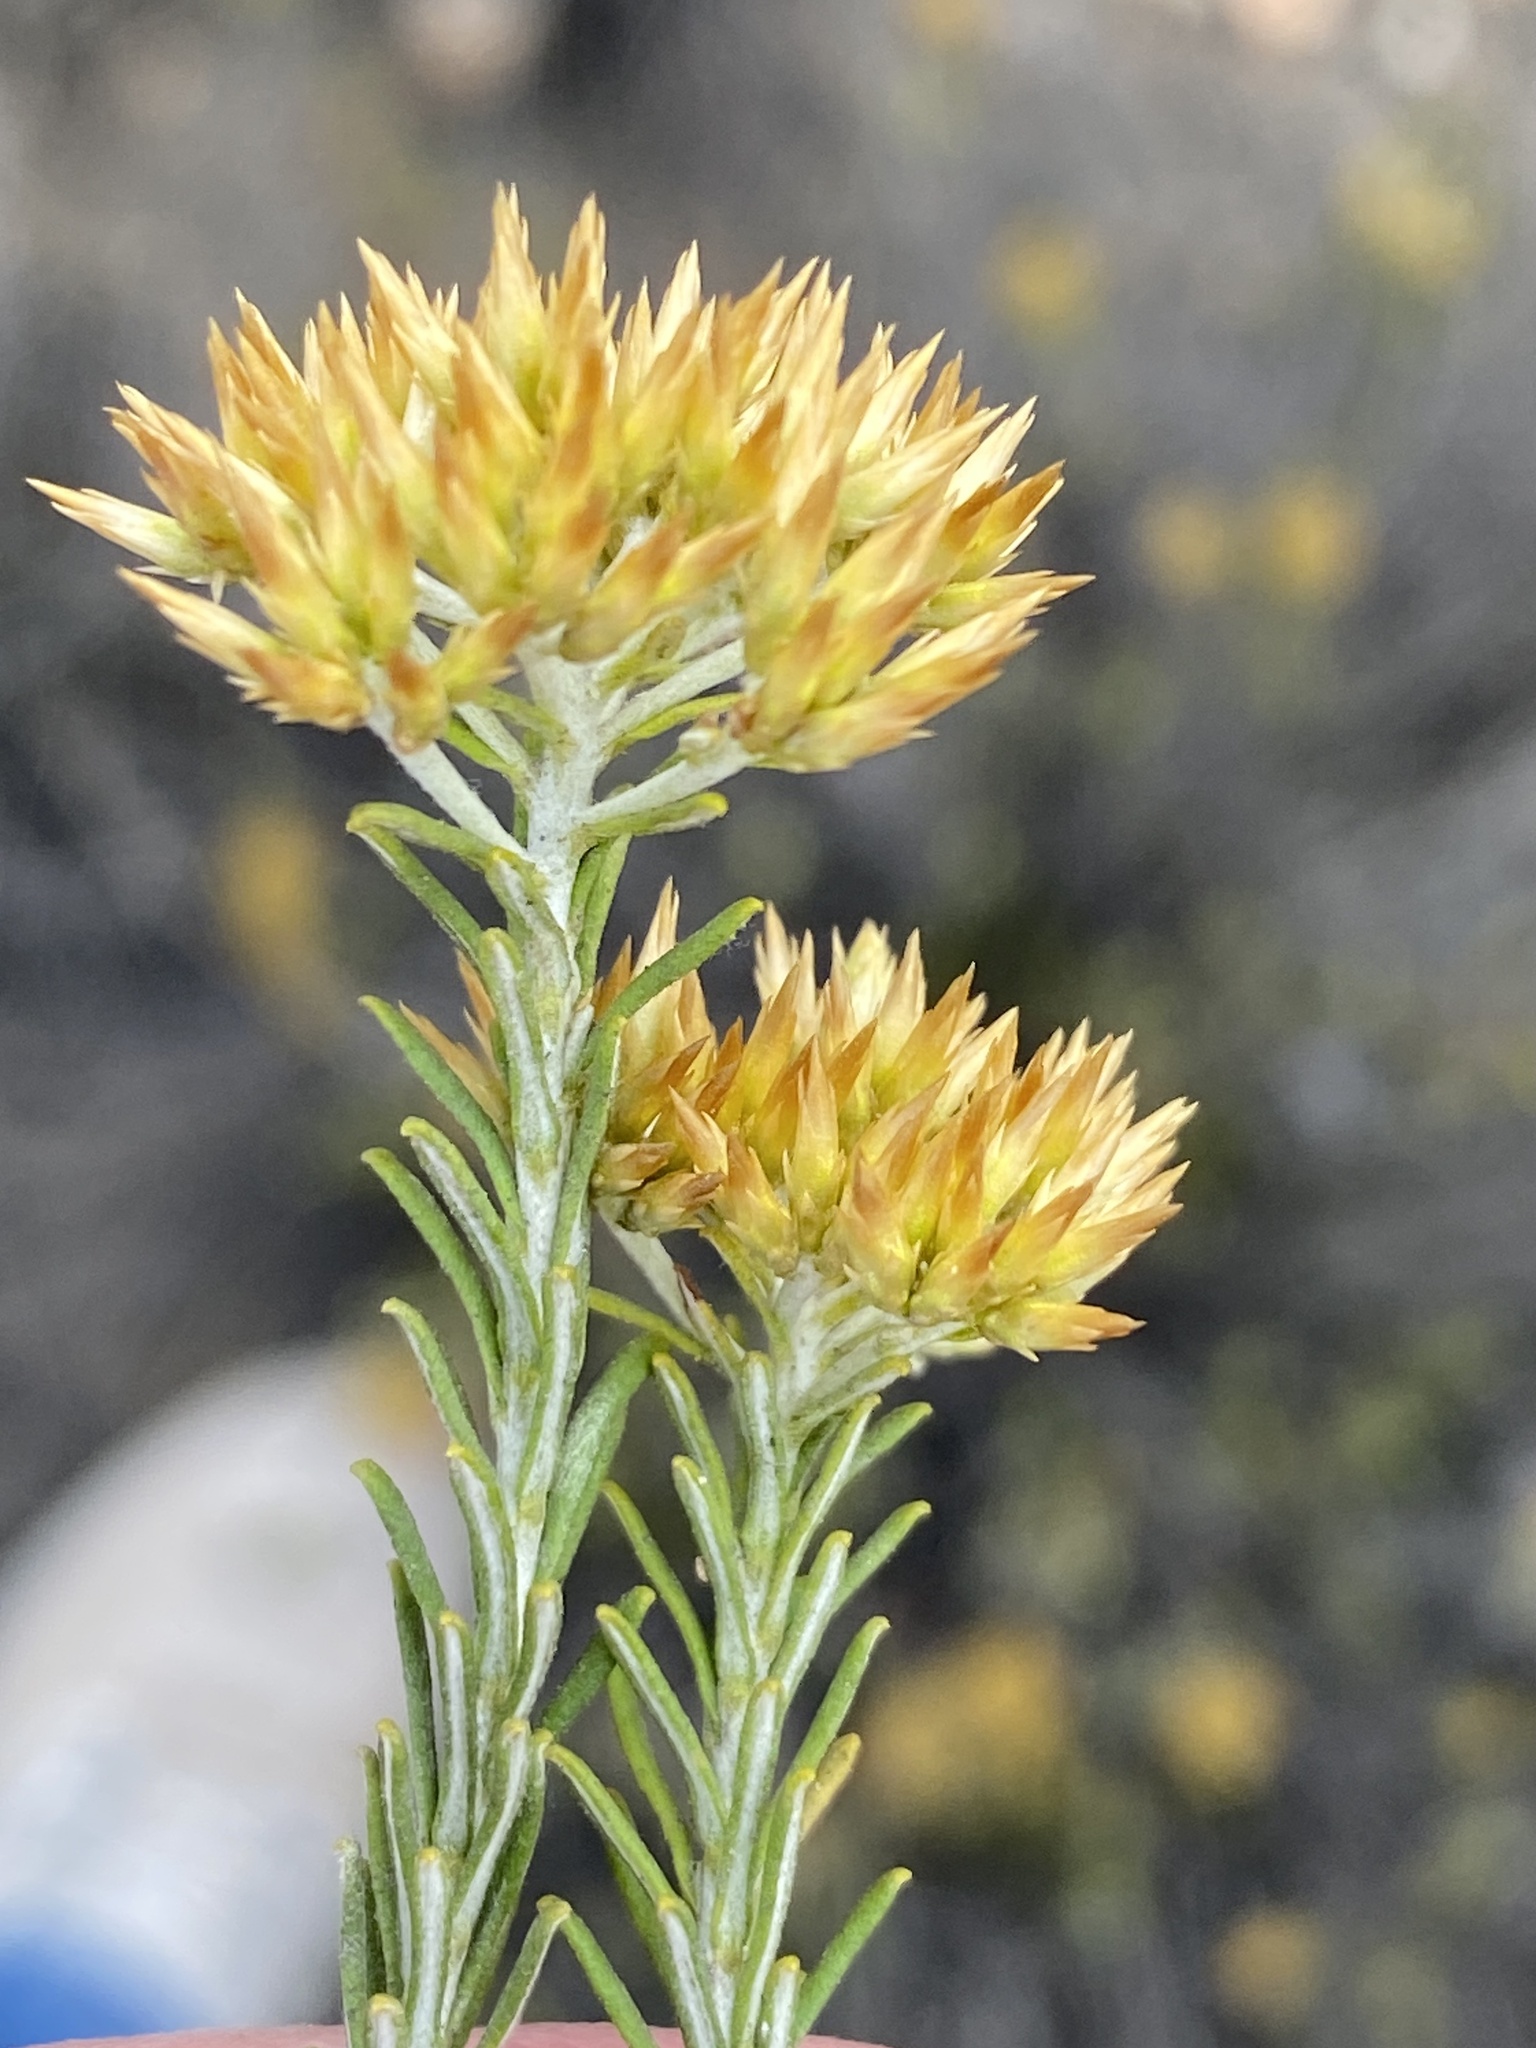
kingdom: Plantae
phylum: Tracheophyta
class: Magnoliopsida
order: Asterales
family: Asteraceae
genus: Helichrysum
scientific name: Helichrysum hamulosum
